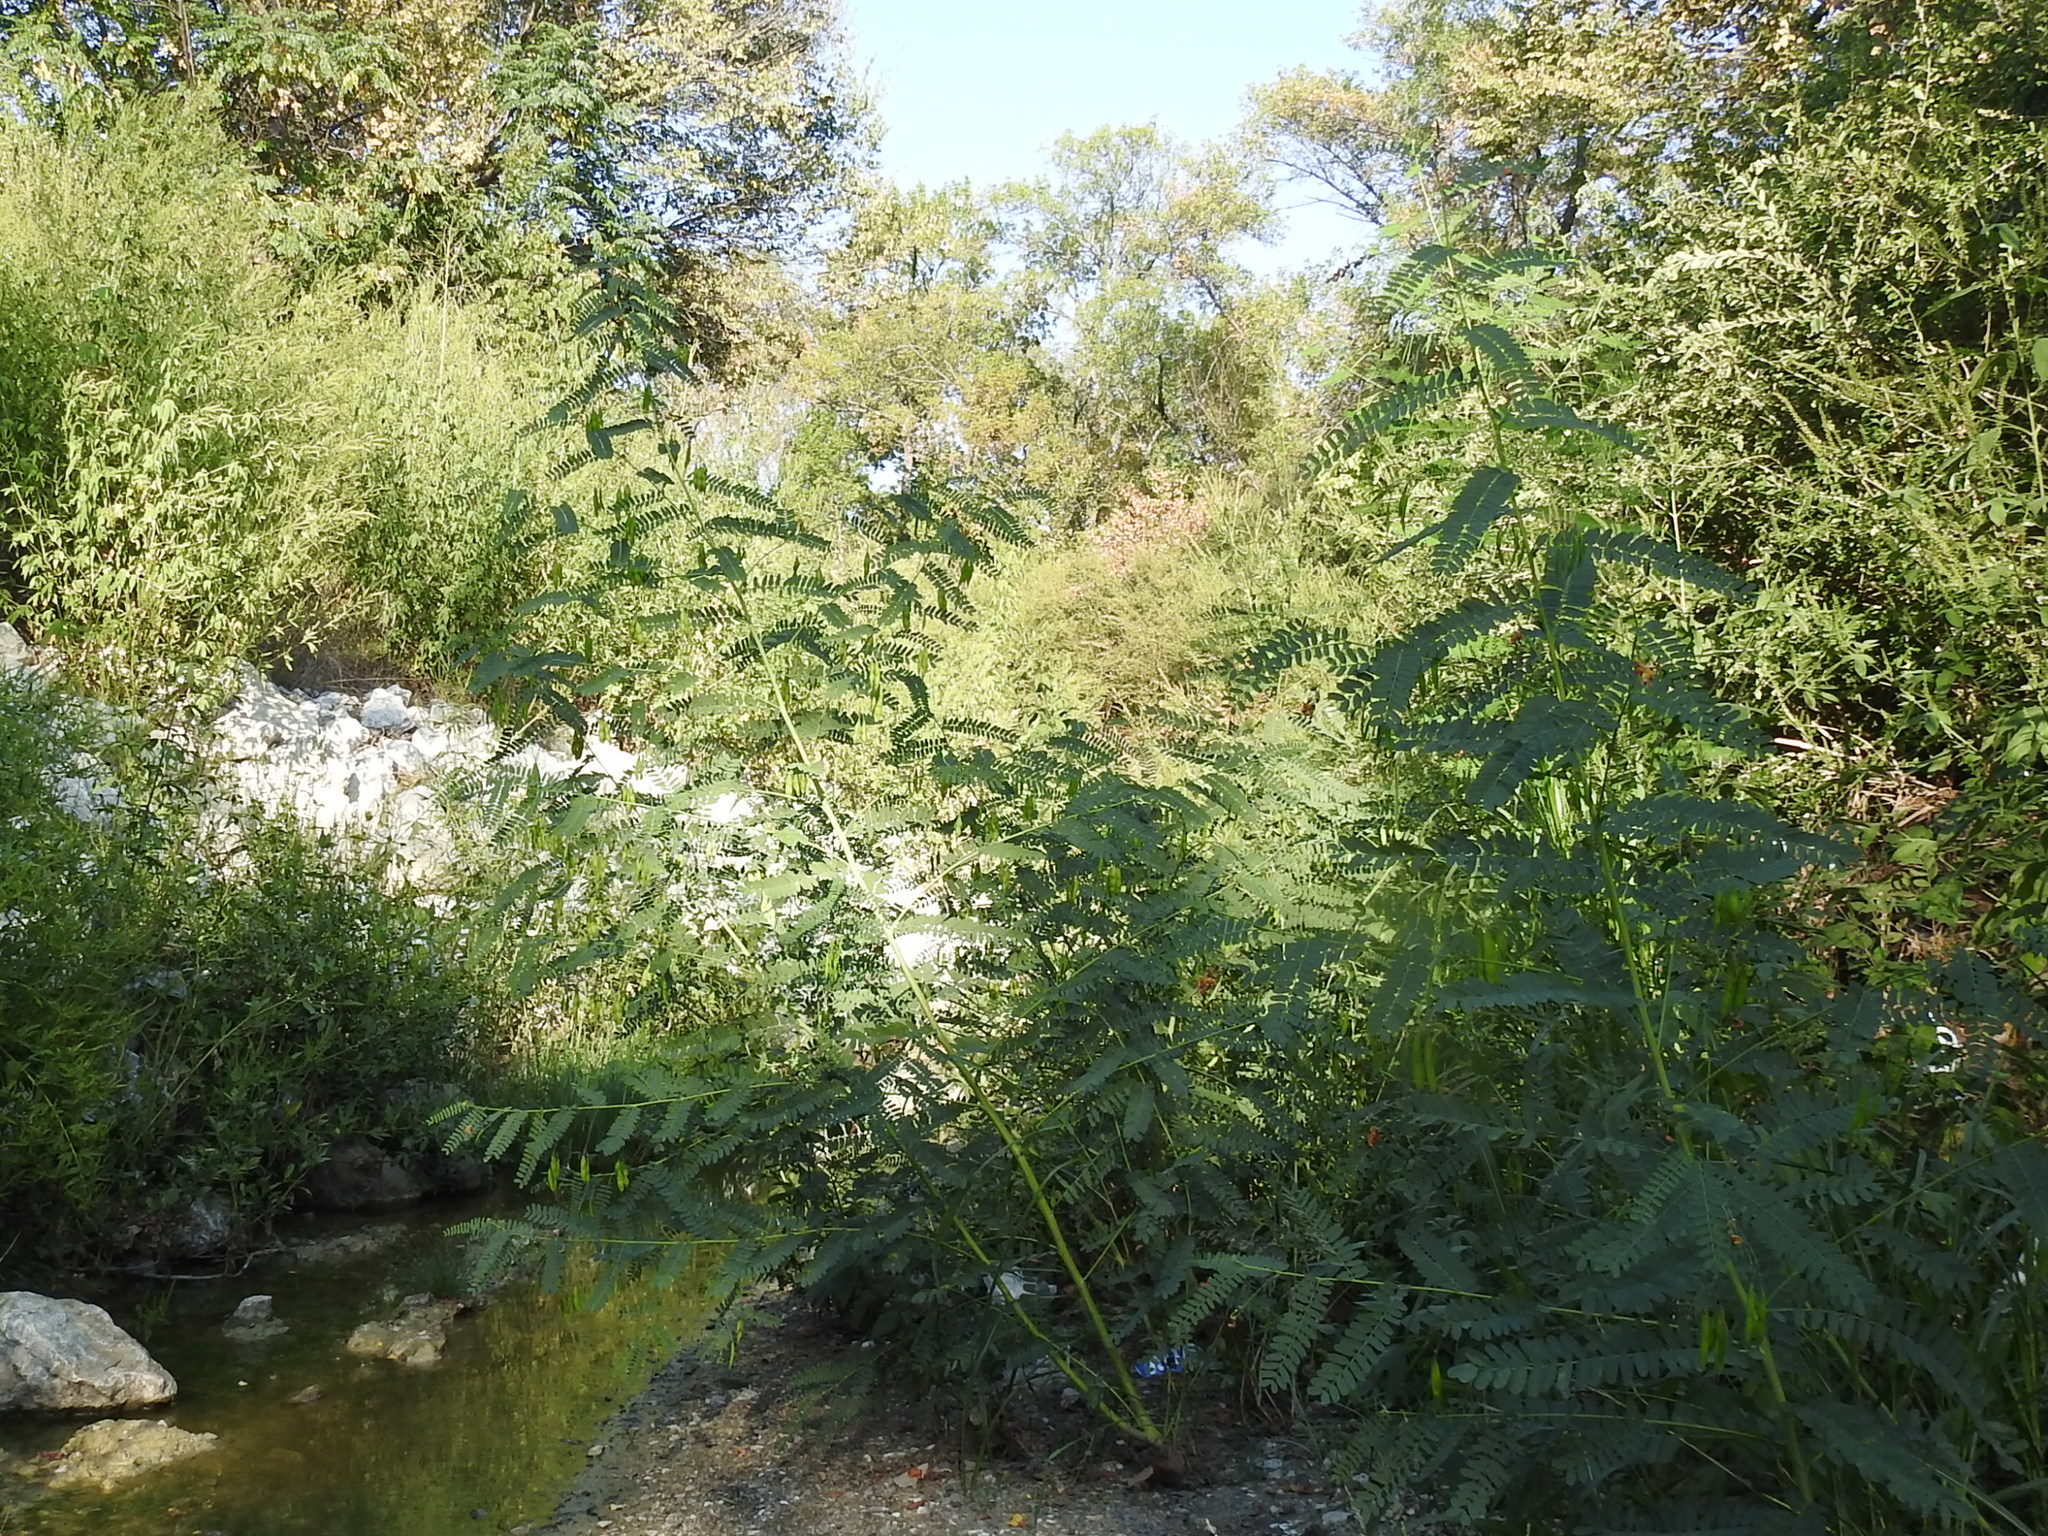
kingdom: Plantae
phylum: Tracheophyta
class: Magnoliopsida
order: Fabales
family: Fabaceae
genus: Sesbania
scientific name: Sesbania vesicaria
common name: Bagpod
